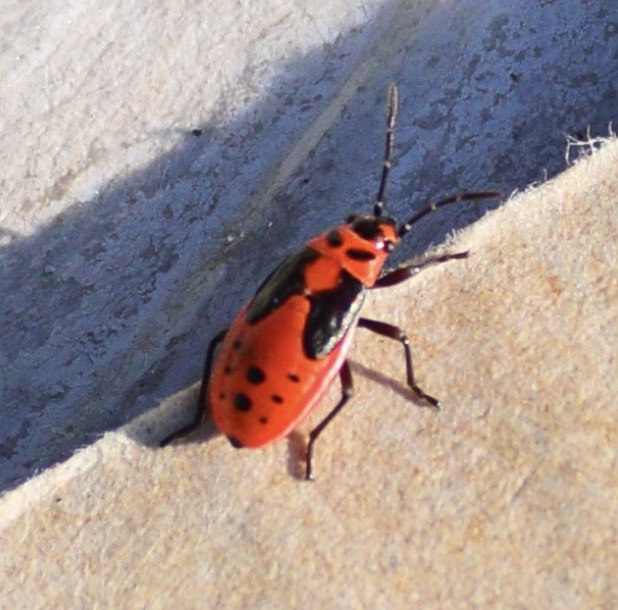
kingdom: Animalia
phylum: Arthropoda
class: Insecta
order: Hemiptera
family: Lygaeidae
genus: Lygaeus
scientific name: Lygaeus kalmii
